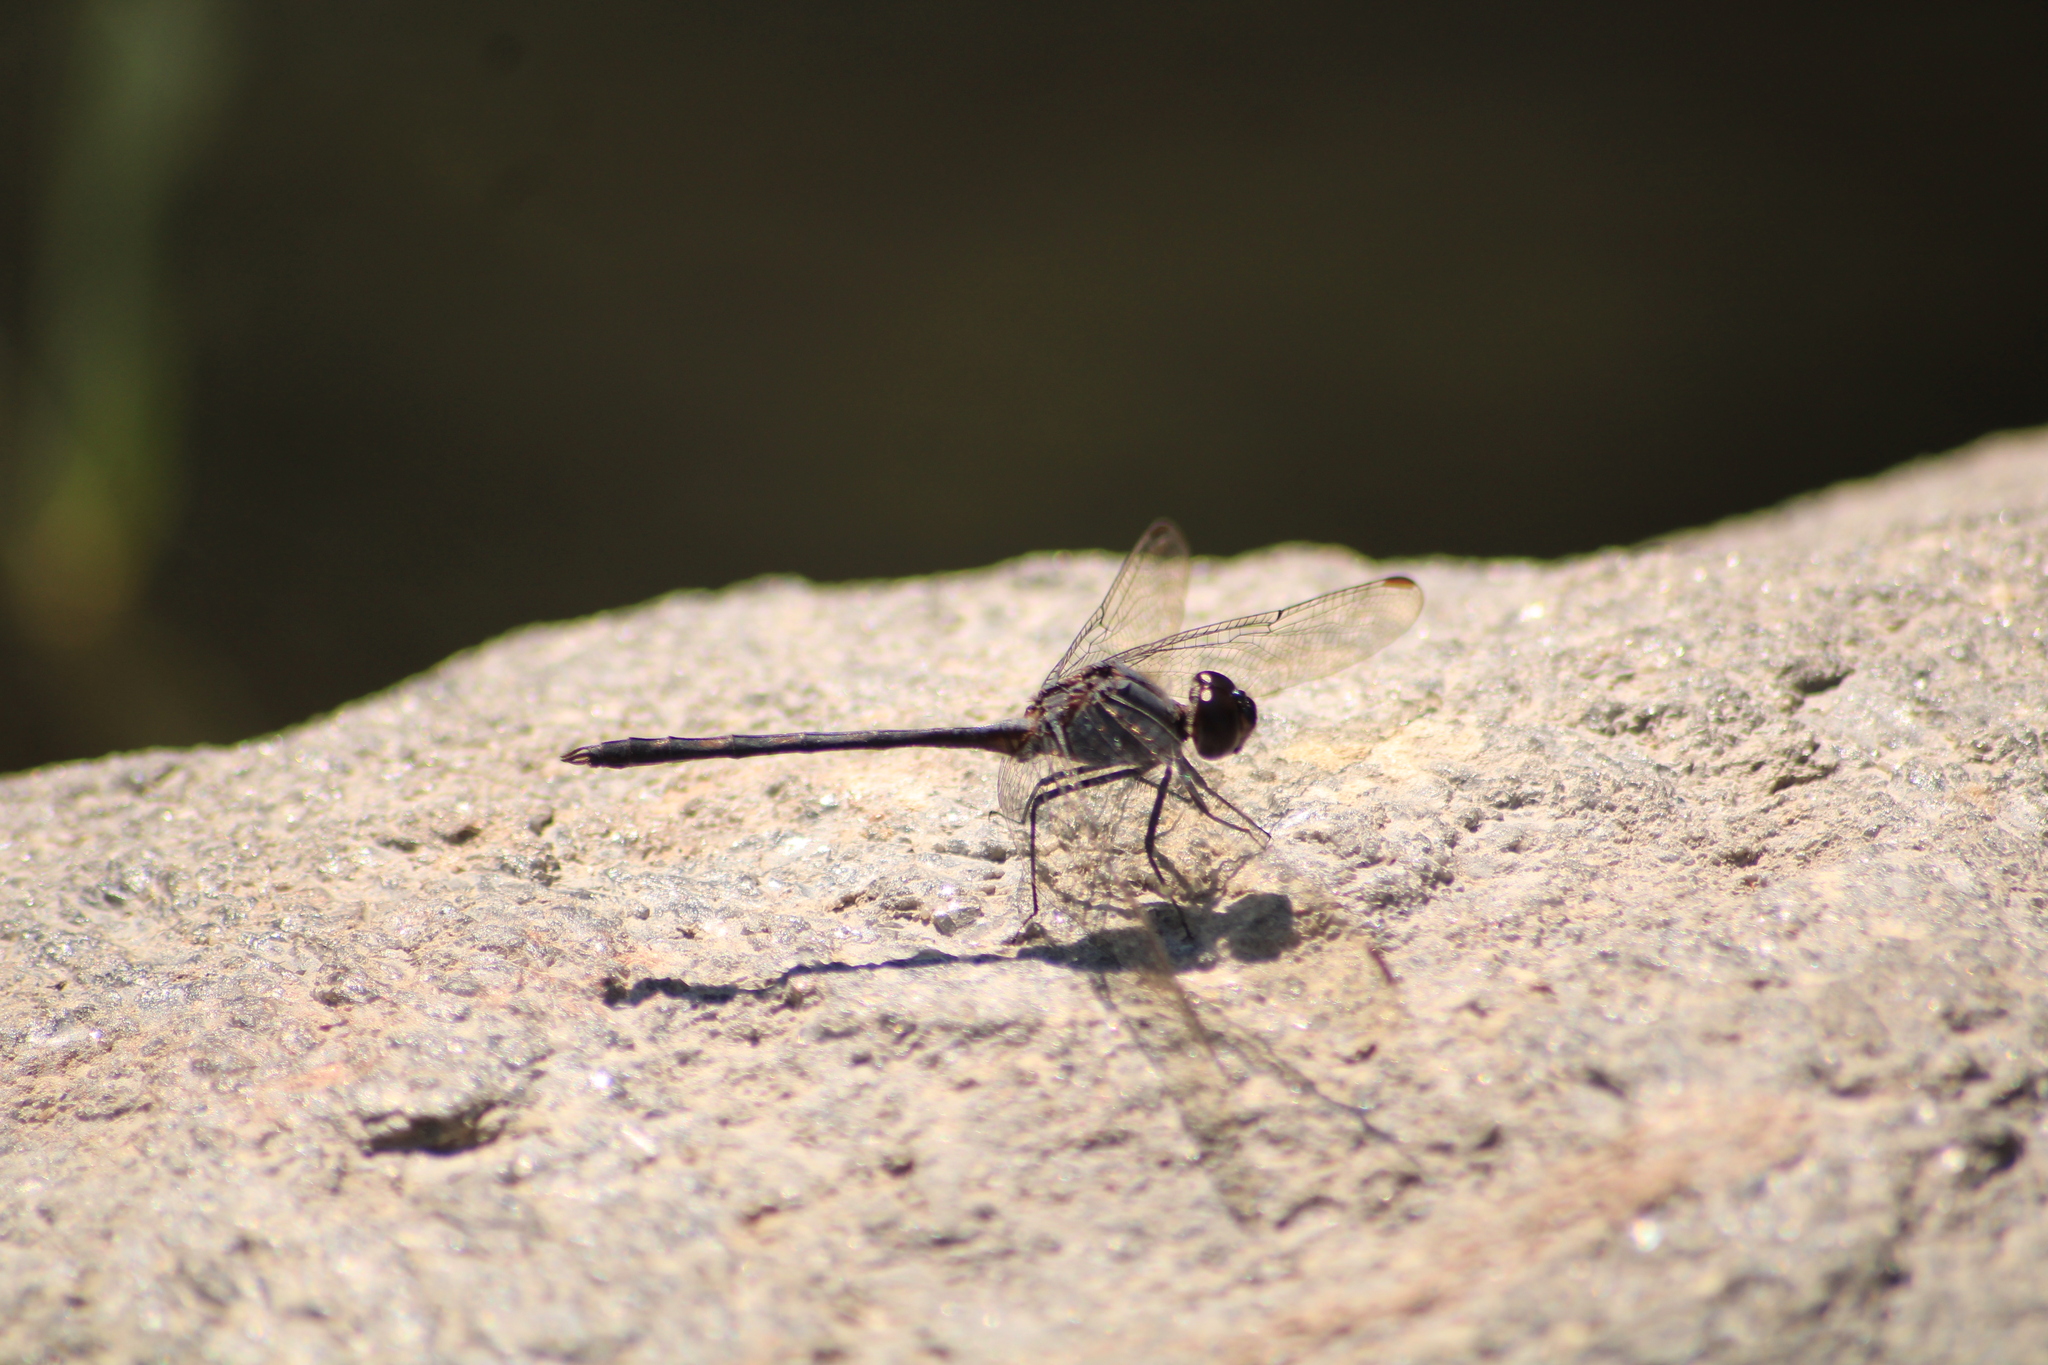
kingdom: Animalia
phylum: Arthropoda
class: Insecta
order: Odonata
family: Libellulidae
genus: Dythemis
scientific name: Dythemis nigrescens
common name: Black setwing
